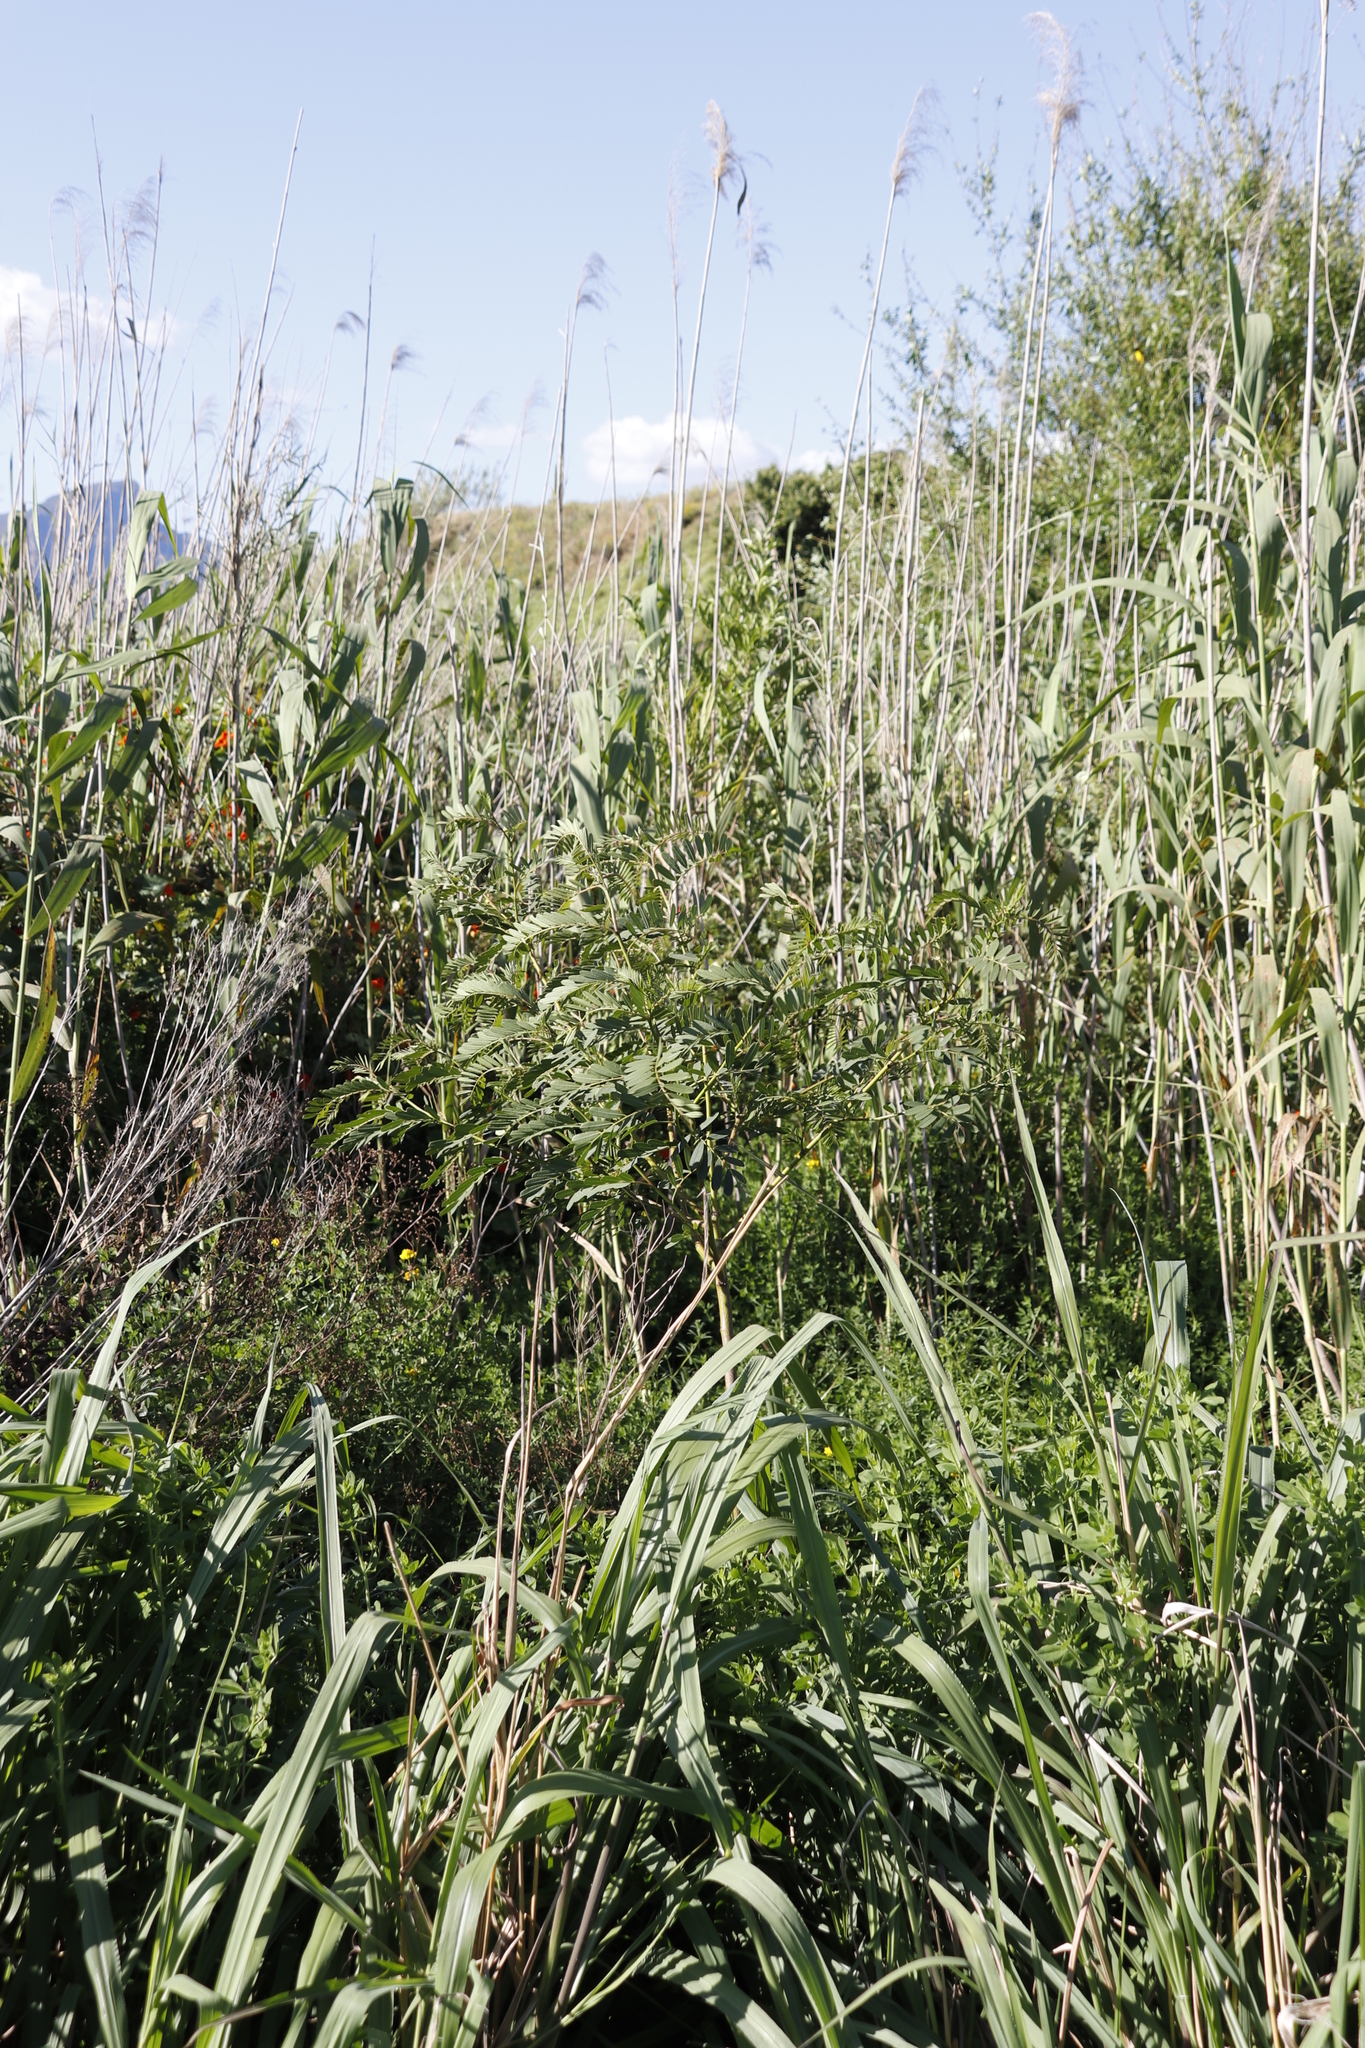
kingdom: Plantae
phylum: Tracheophyta
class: Liliopsida
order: Poales
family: Poaceae
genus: Phragmites
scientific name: Phragmites australis
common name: Common reed
